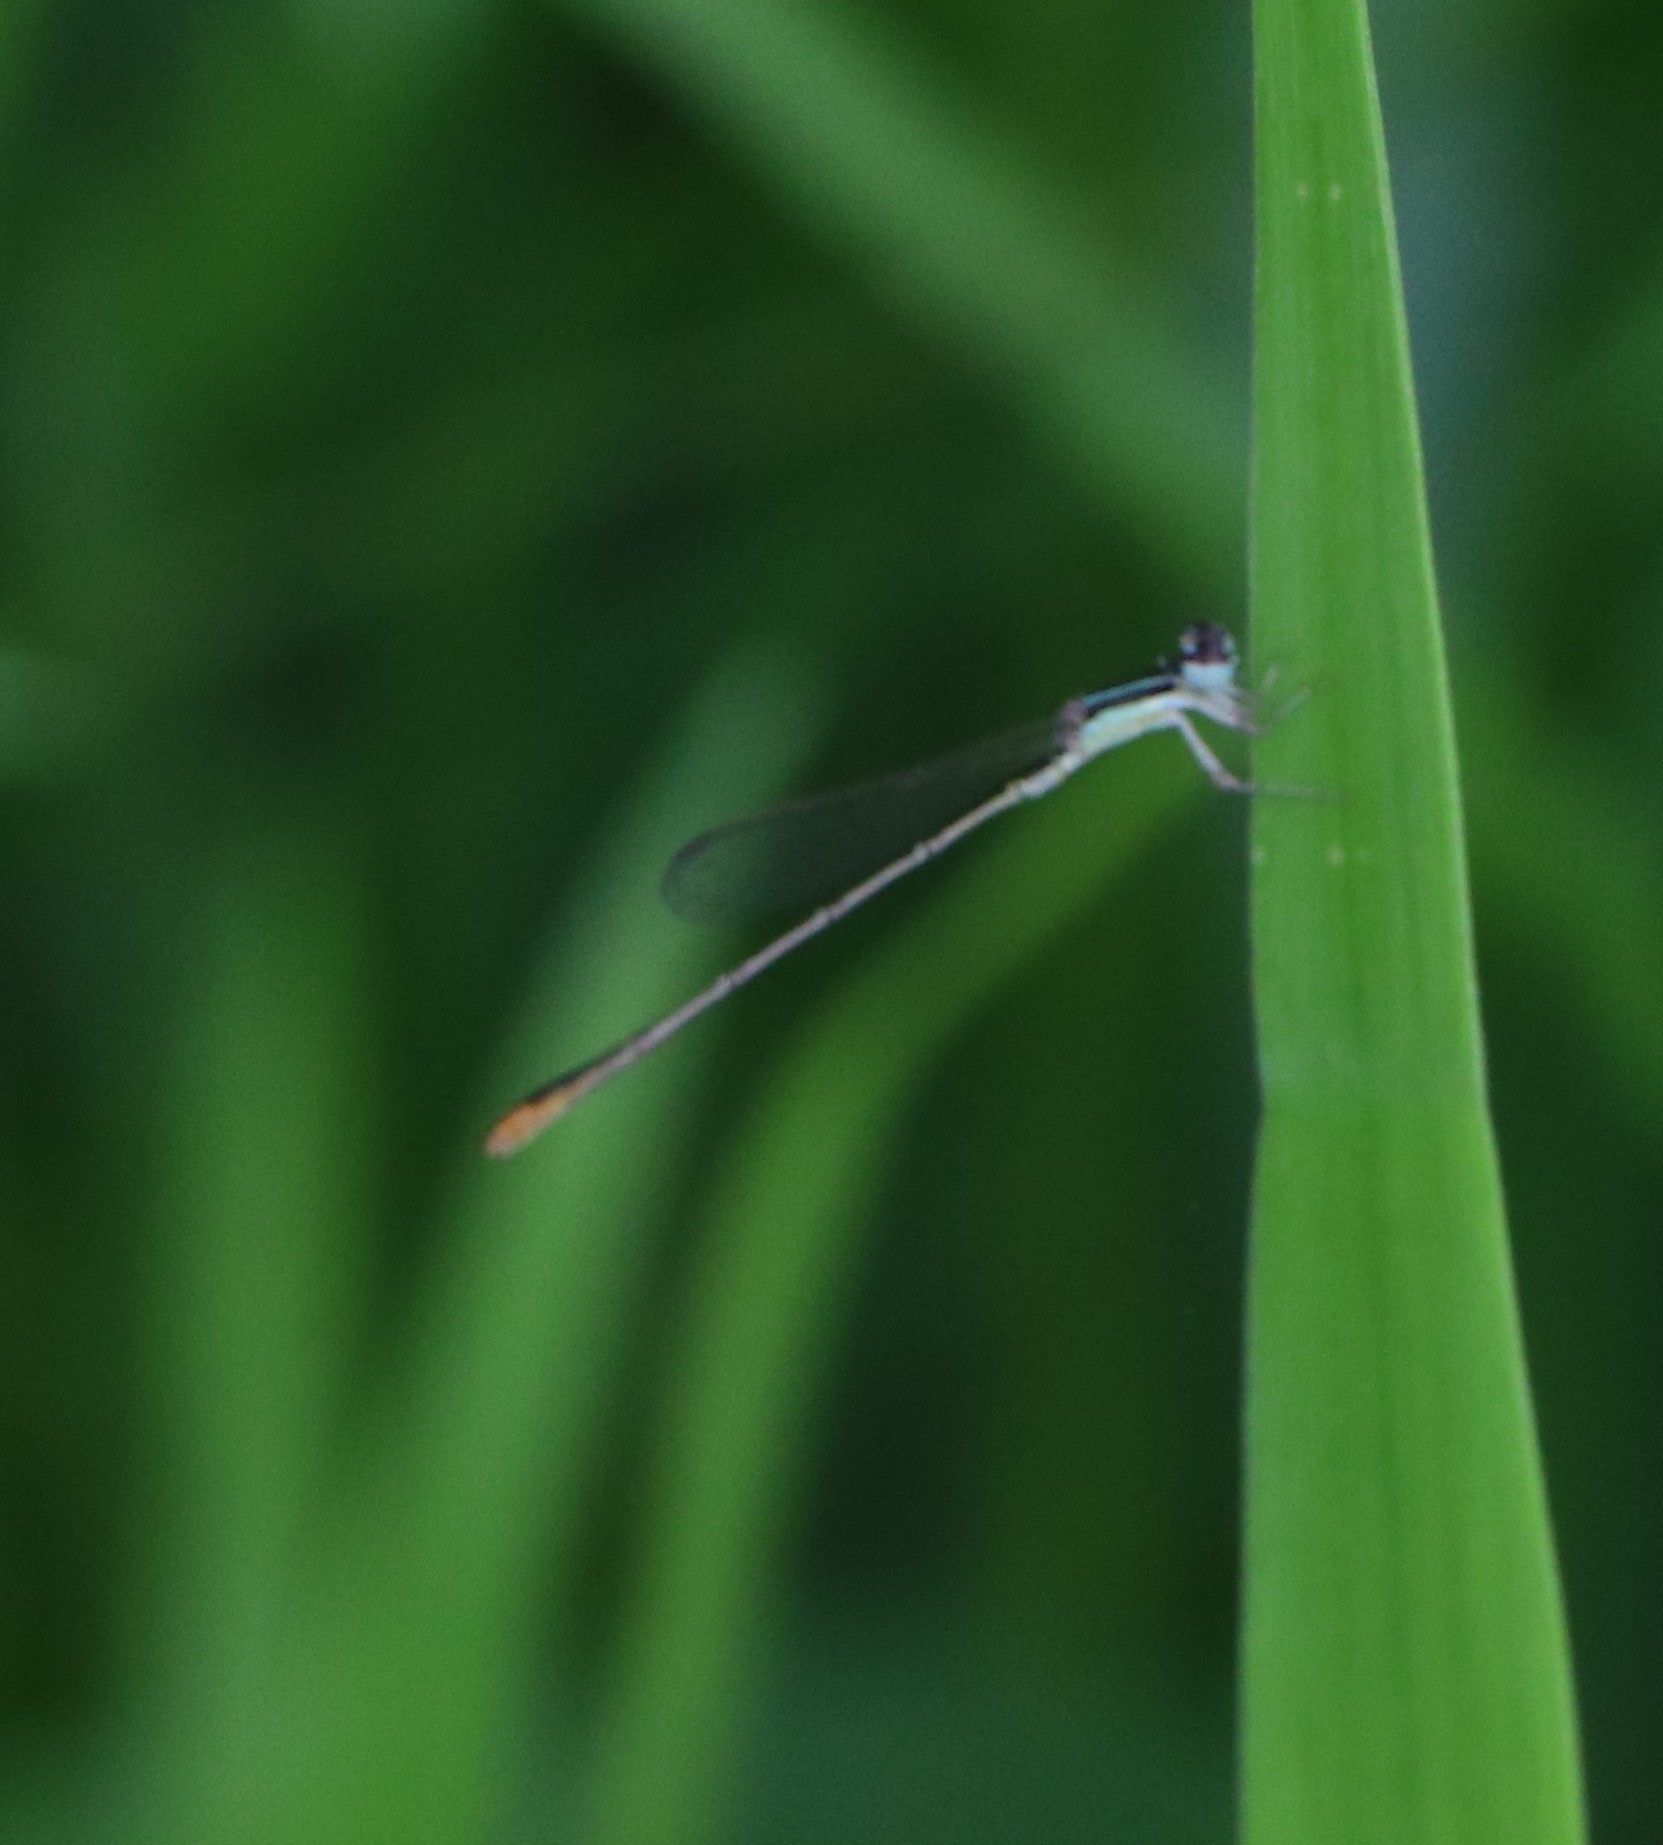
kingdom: Animalia
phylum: Arthropoda
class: Insecta
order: Odonata
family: Coenagrionidae
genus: Agriocnemis
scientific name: Agriocnemis pygmaea
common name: Pygmy wisp
